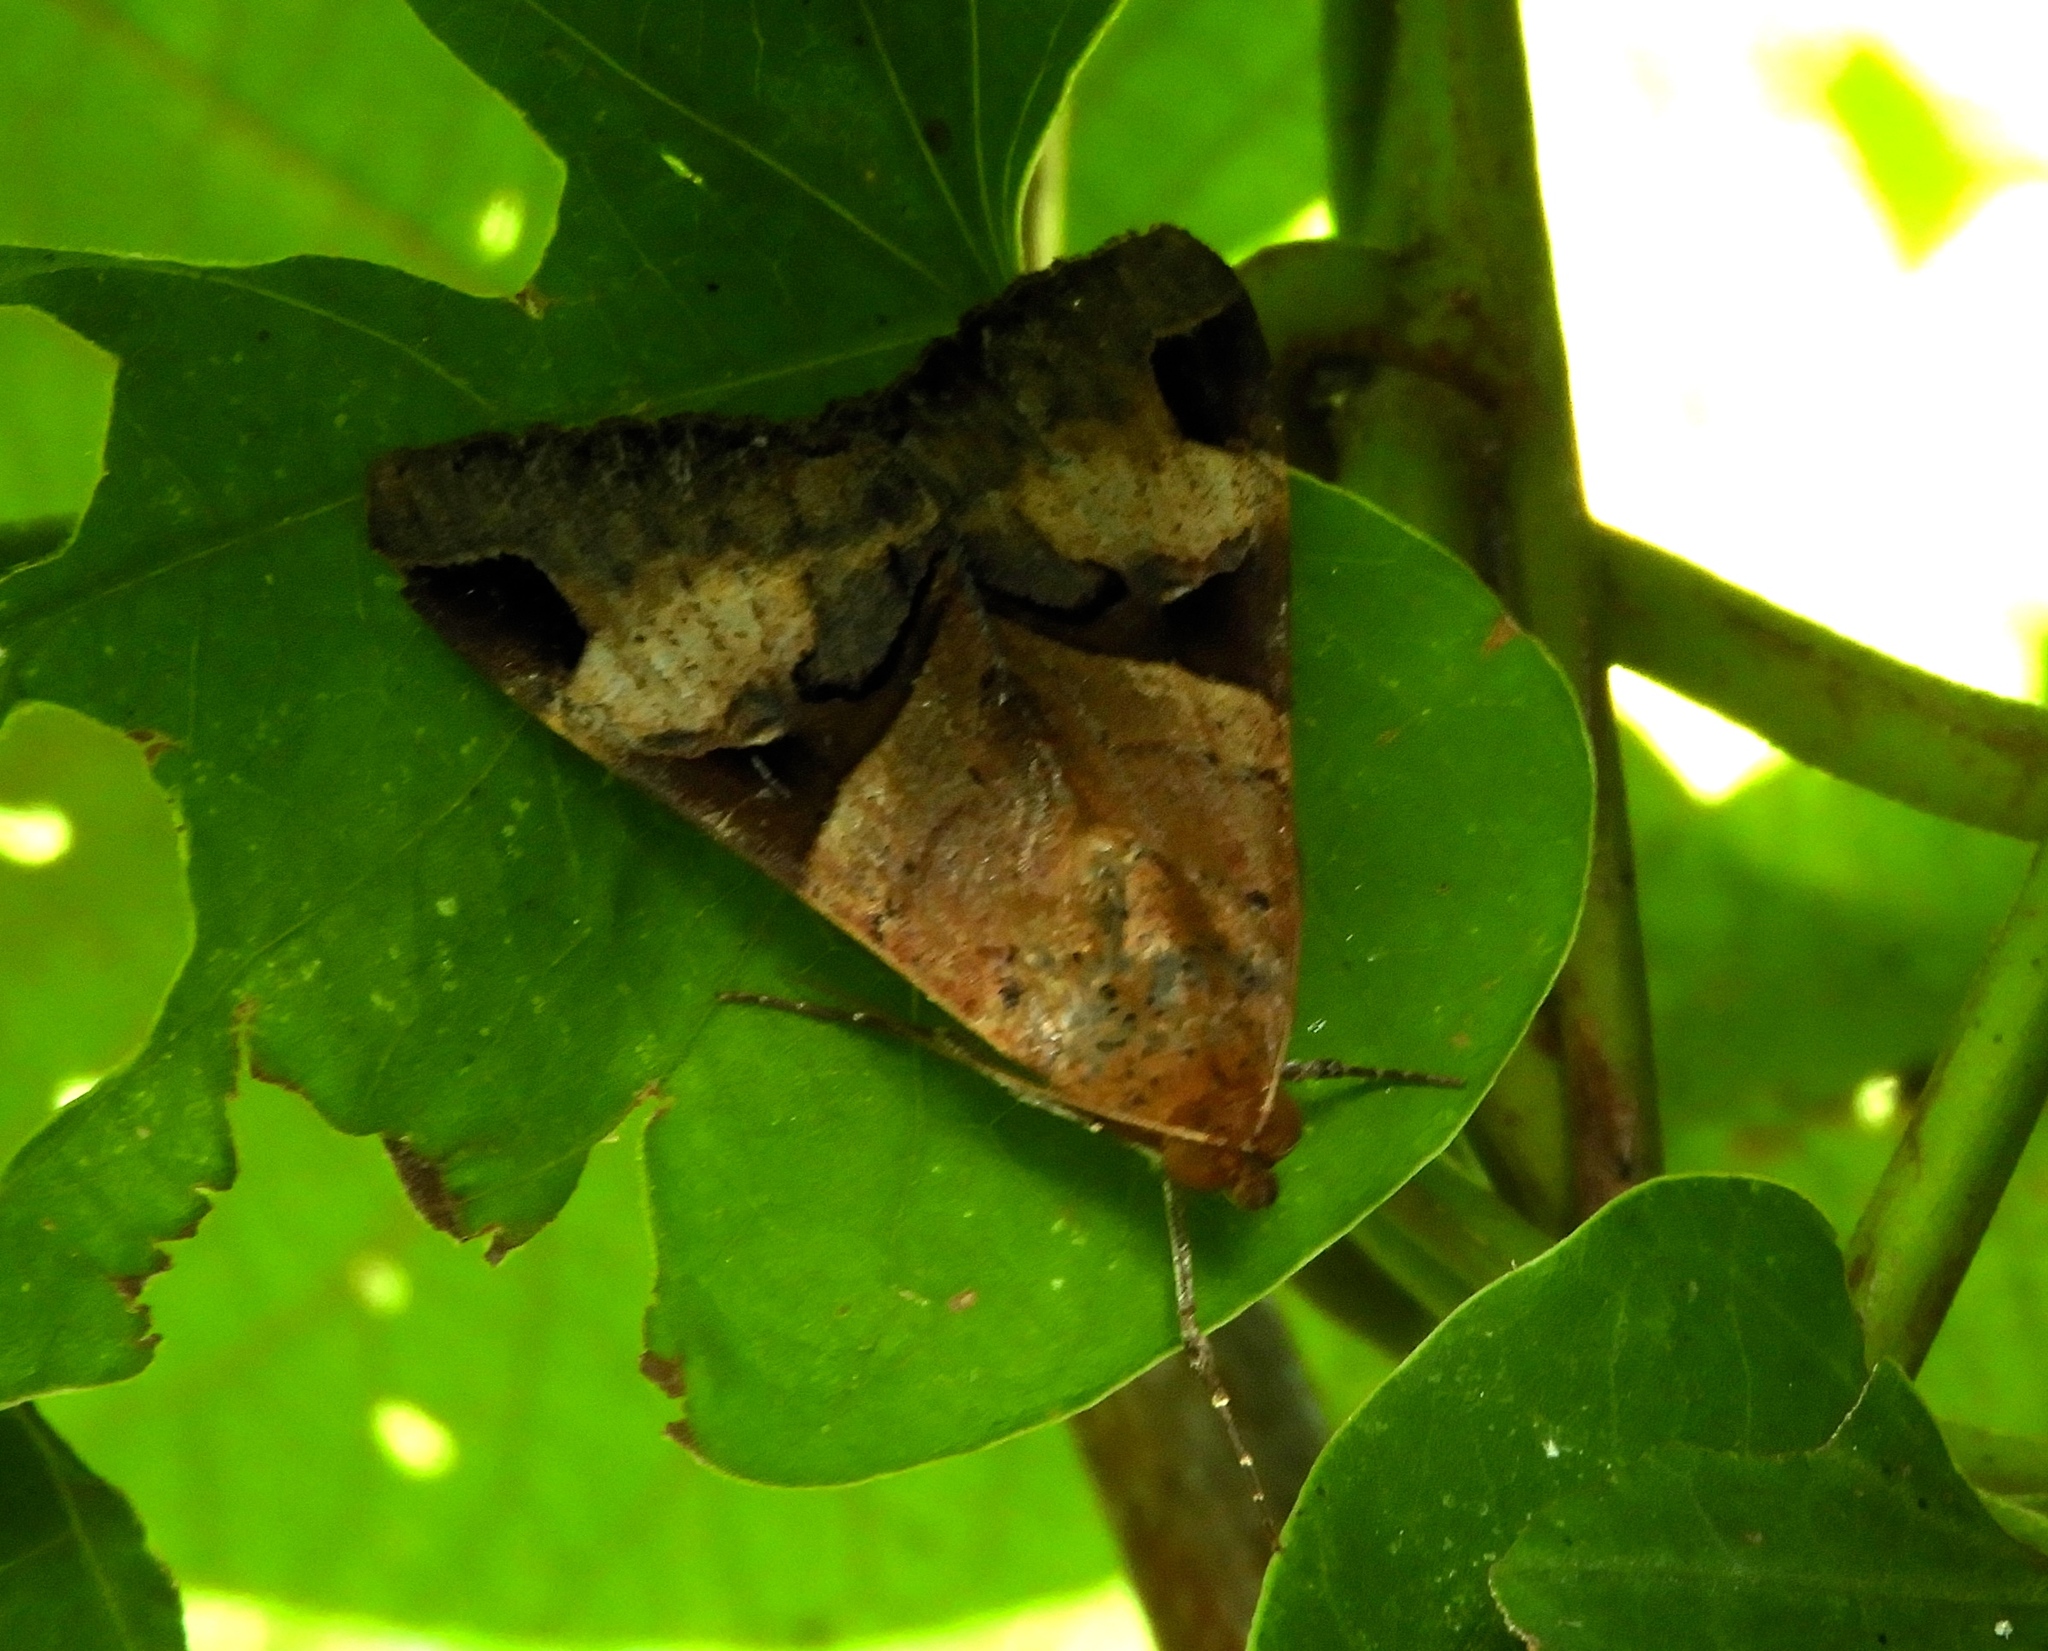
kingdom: Animalia
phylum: Arthropoda
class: Insecta
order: Lepidoptera
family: Erebidae
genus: Melipotis
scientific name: Melipotis fasciolaris
